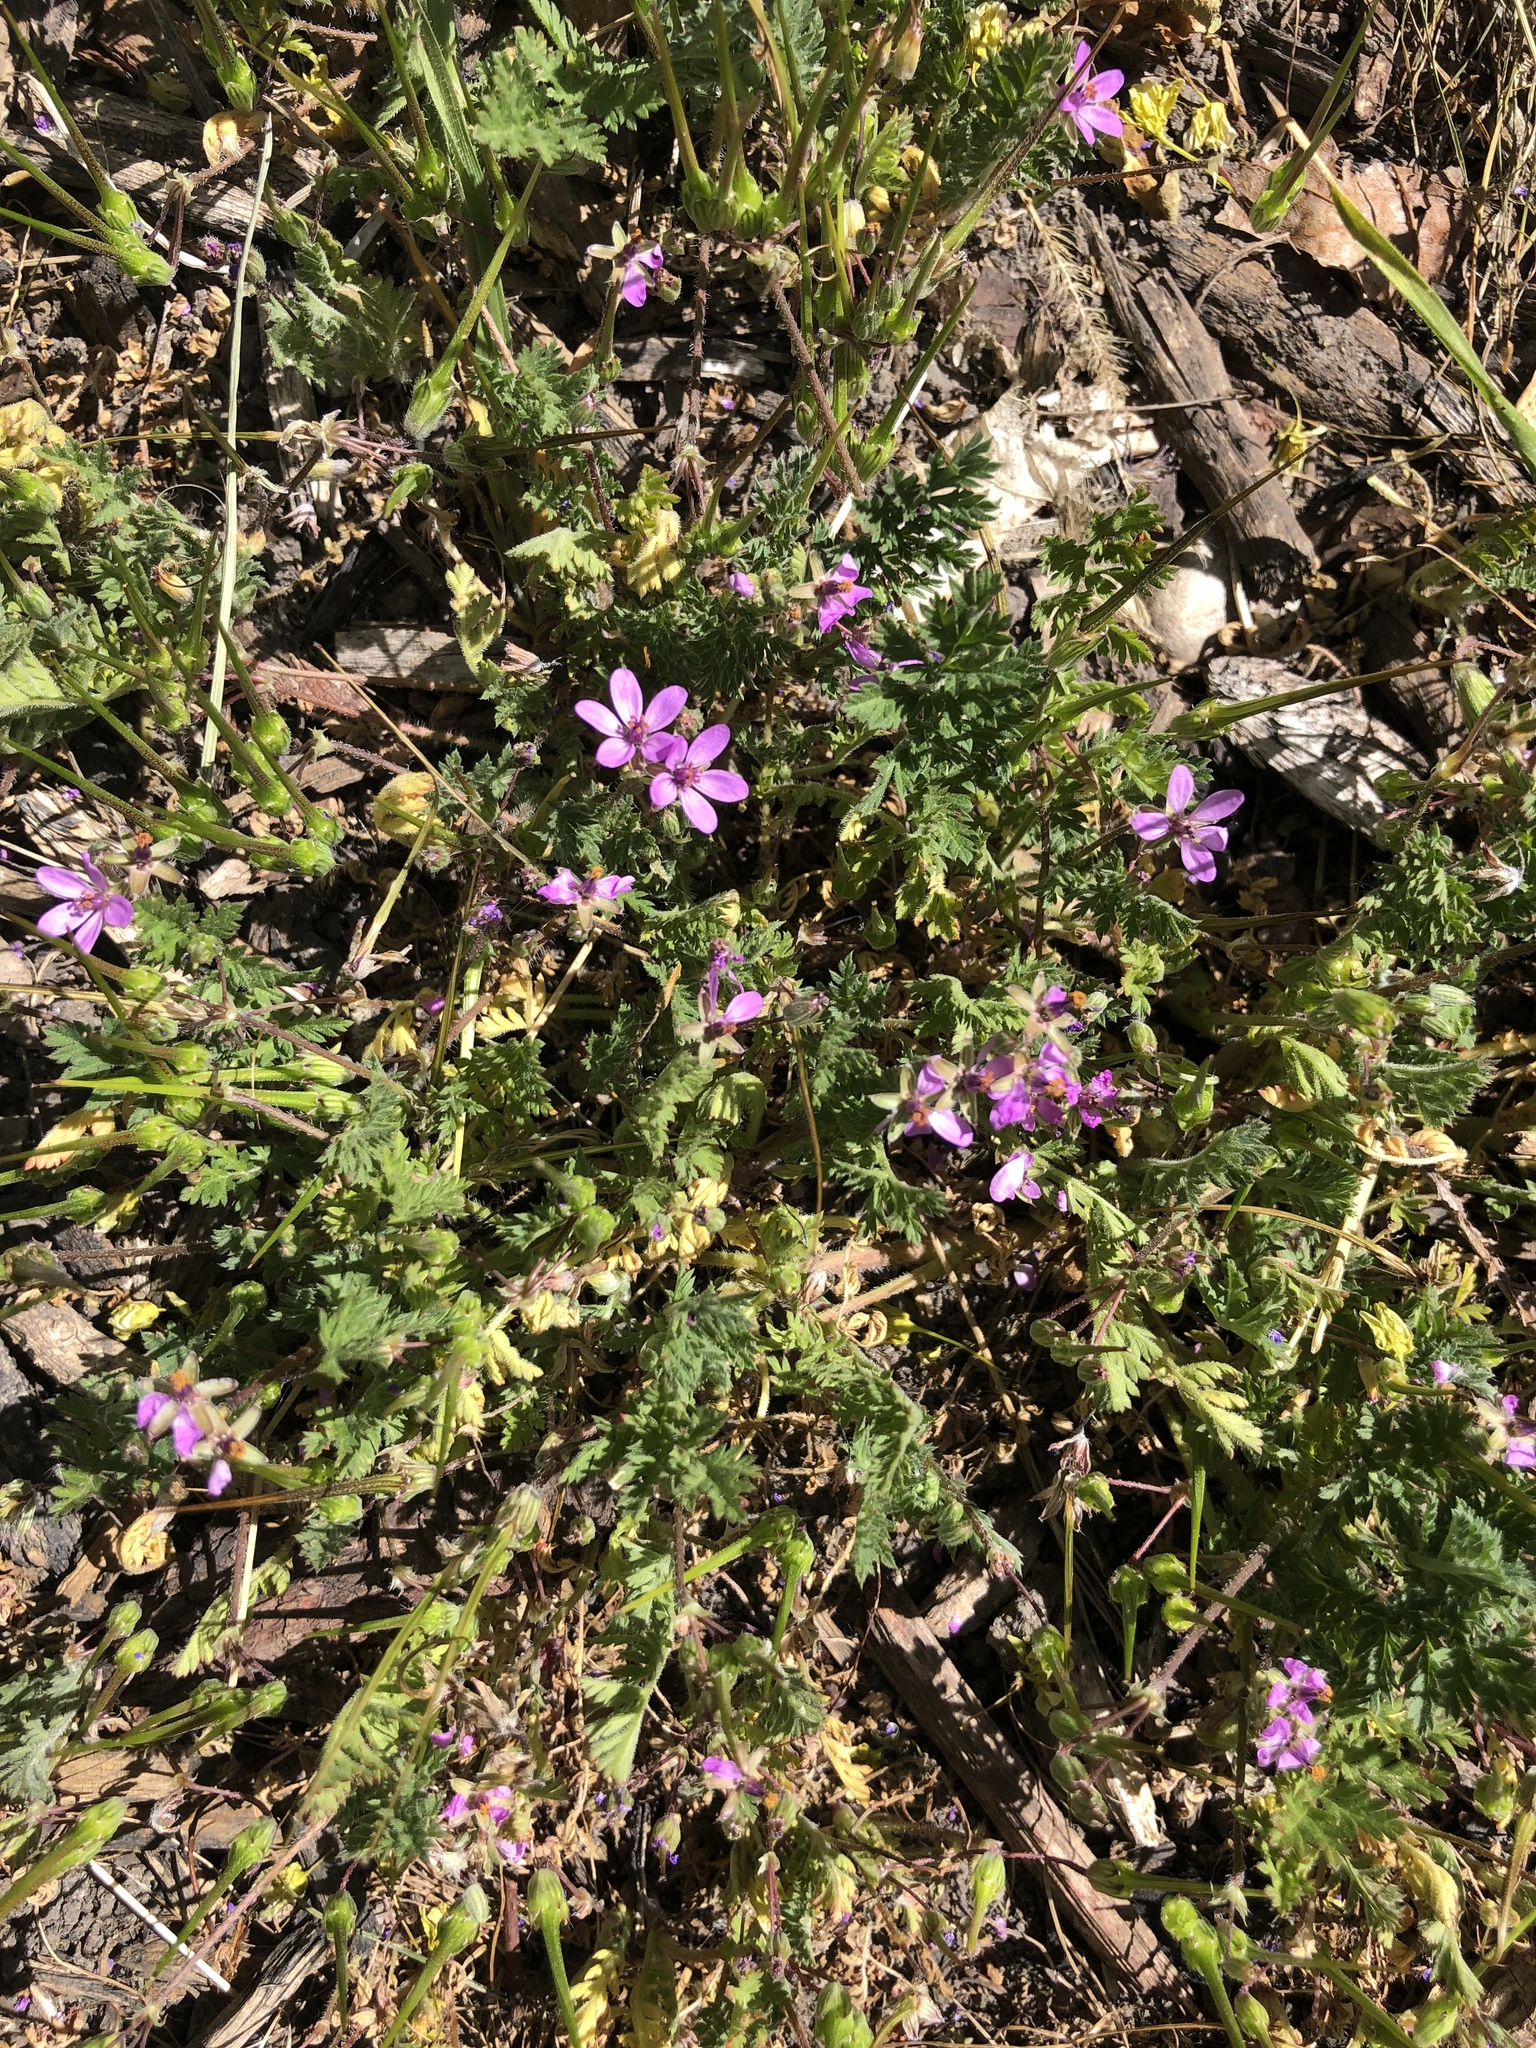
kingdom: Plantae
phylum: Tracheophyta
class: Magnoliopsida
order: Geraniales
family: Geraniaceae
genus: Erodium
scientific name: Erodium cicutarium
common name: Common stork's-bill
